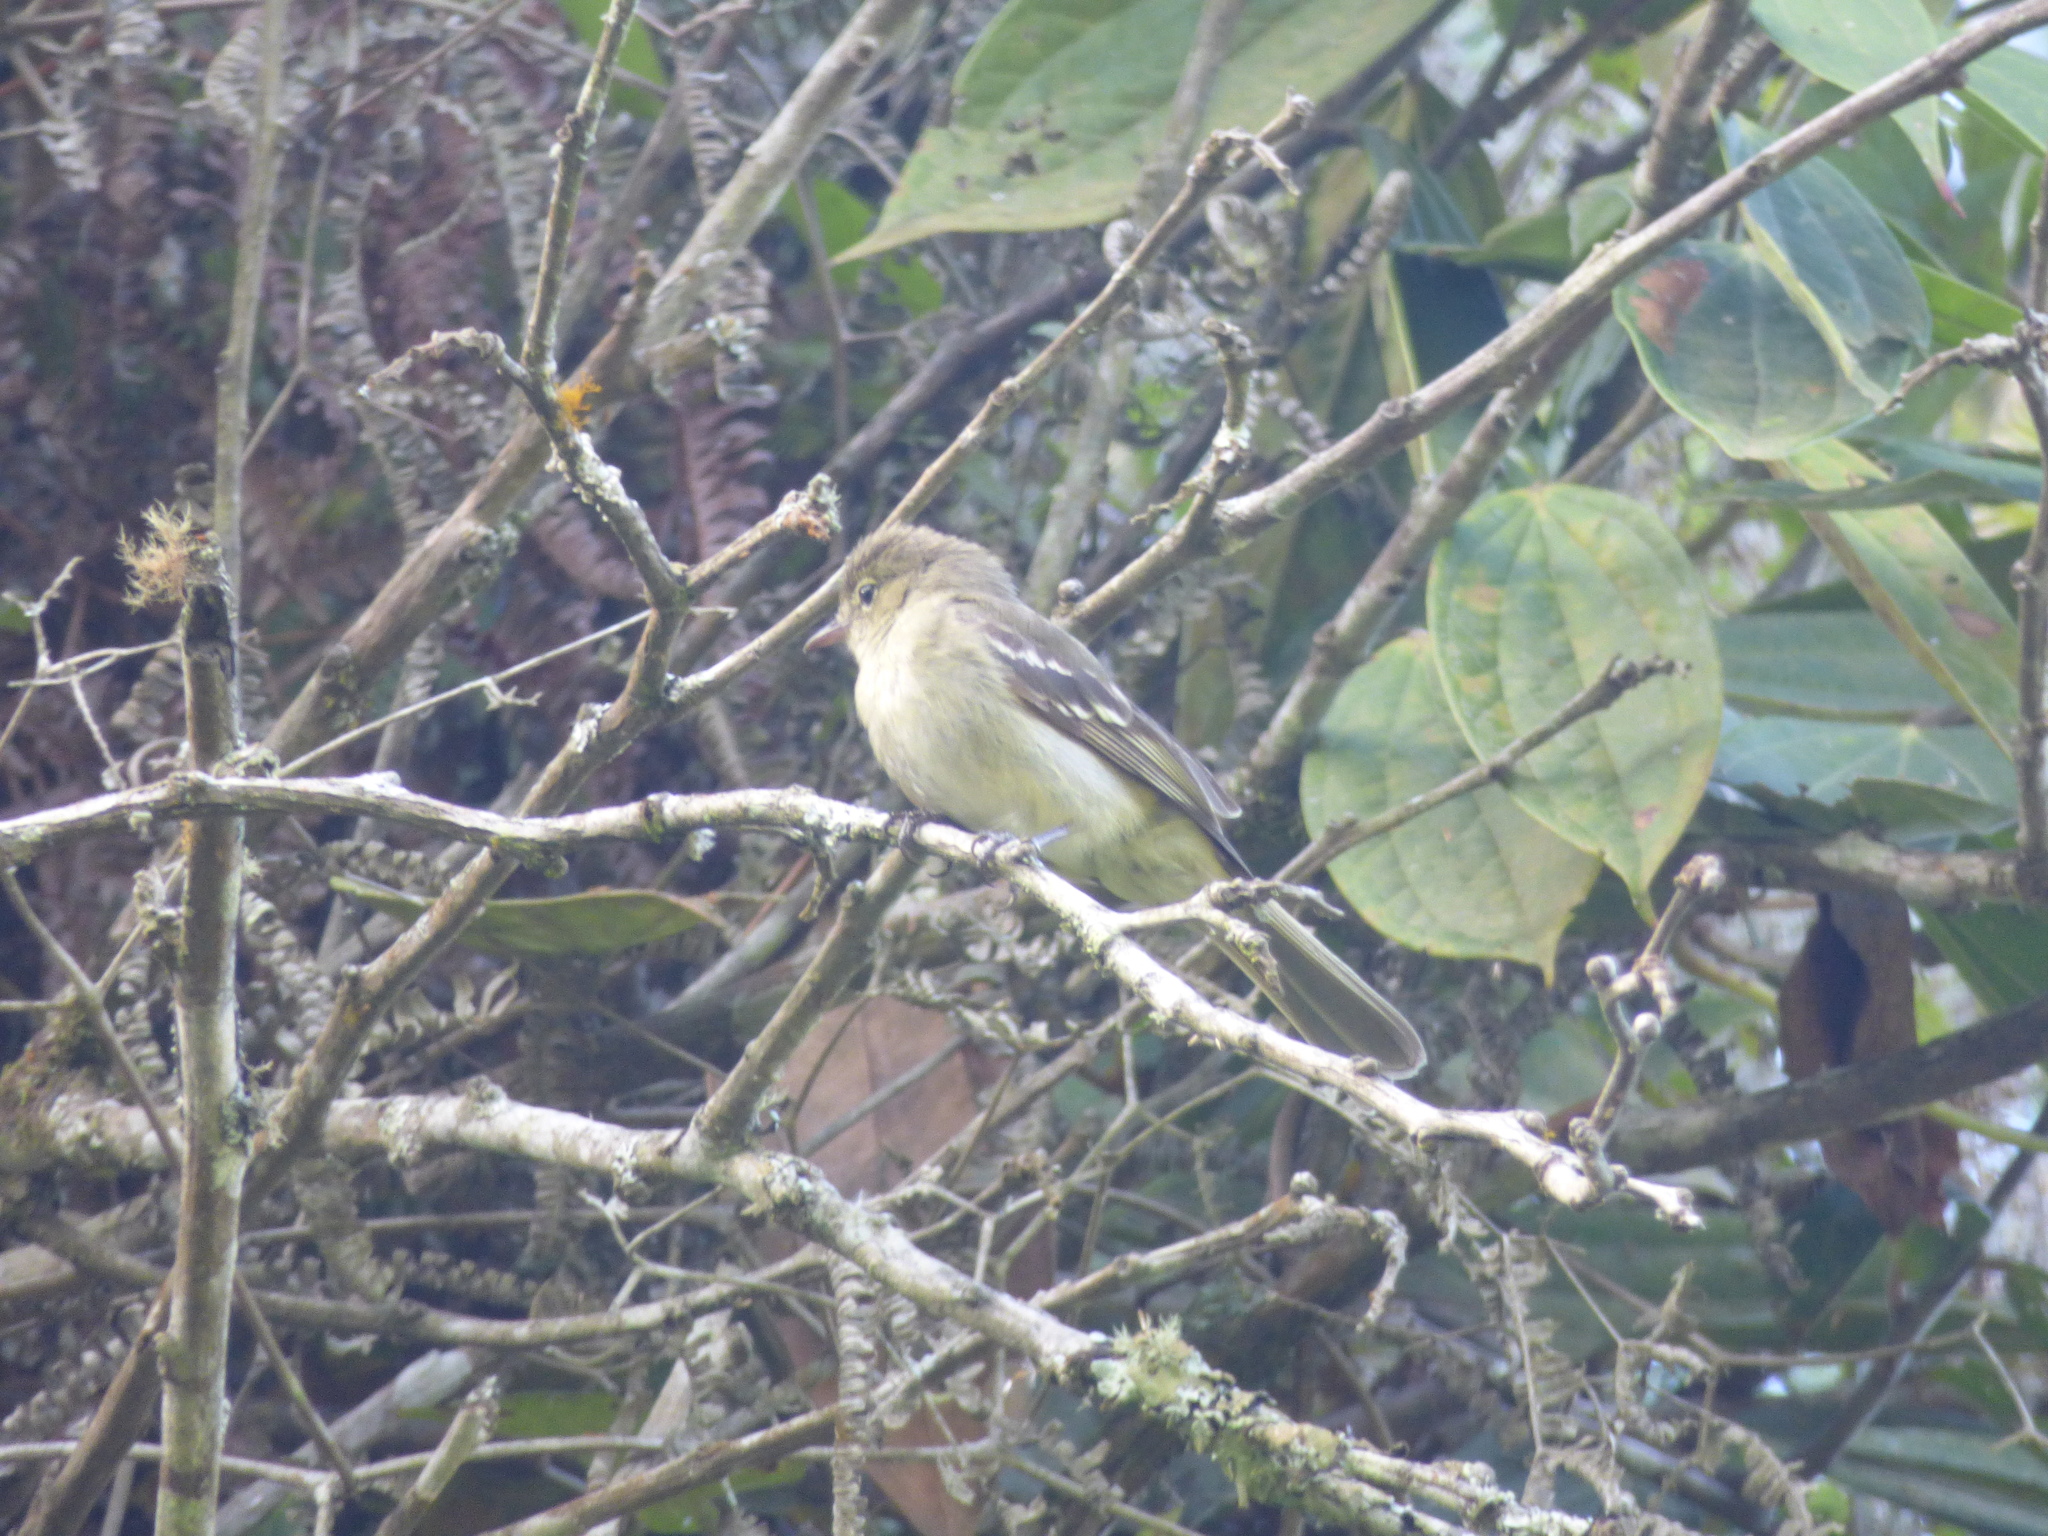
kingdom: Animalia
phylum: Chordata
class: Aves
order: Passeriformes
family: Tyrannidae
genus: Contopus
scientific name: Contopus virens
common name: Eastern wood-pewee
